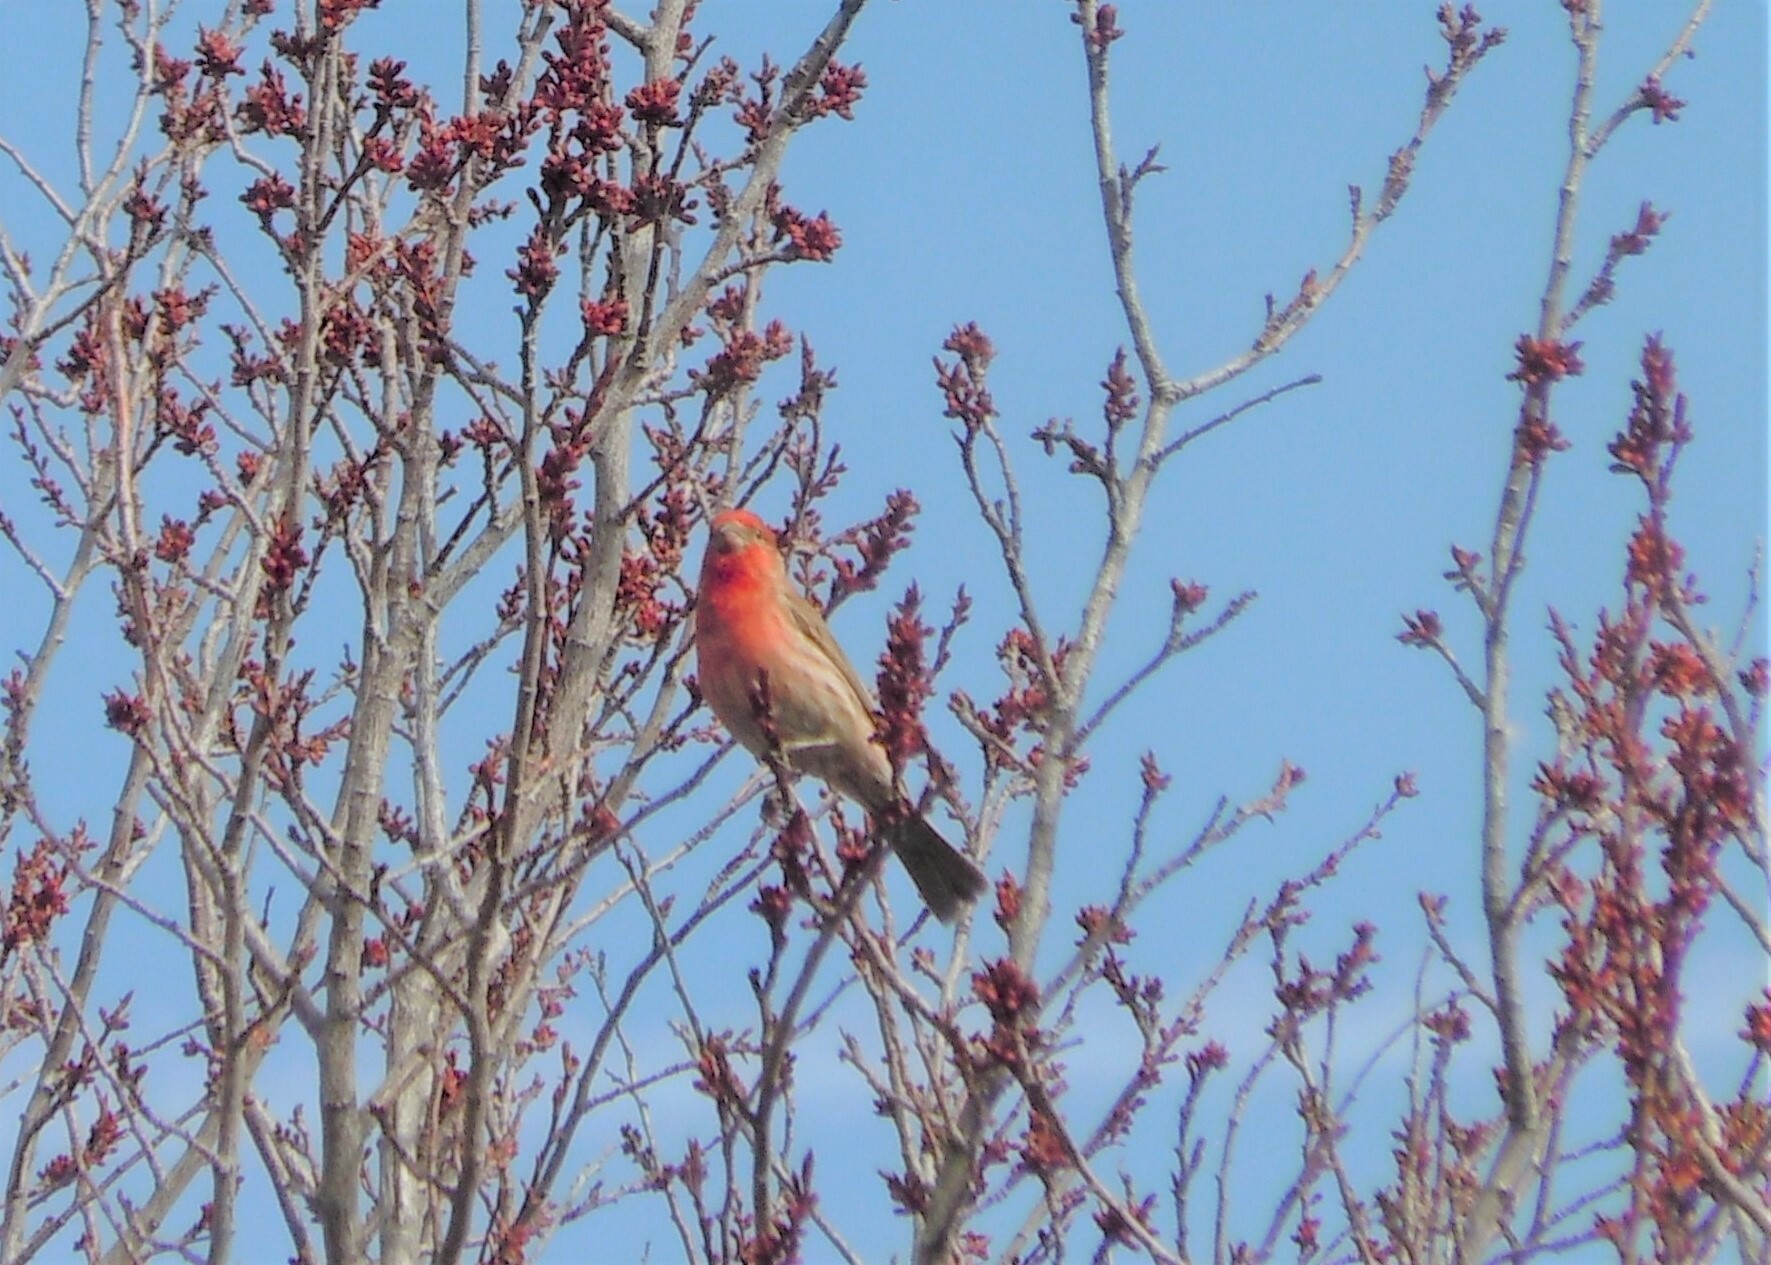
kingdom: Animalia
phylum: Chordata
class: Aves
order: Passeriformes
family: Fringillidae
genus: Haemorhous
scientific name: Haemorhous mexicanus
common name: House finch
